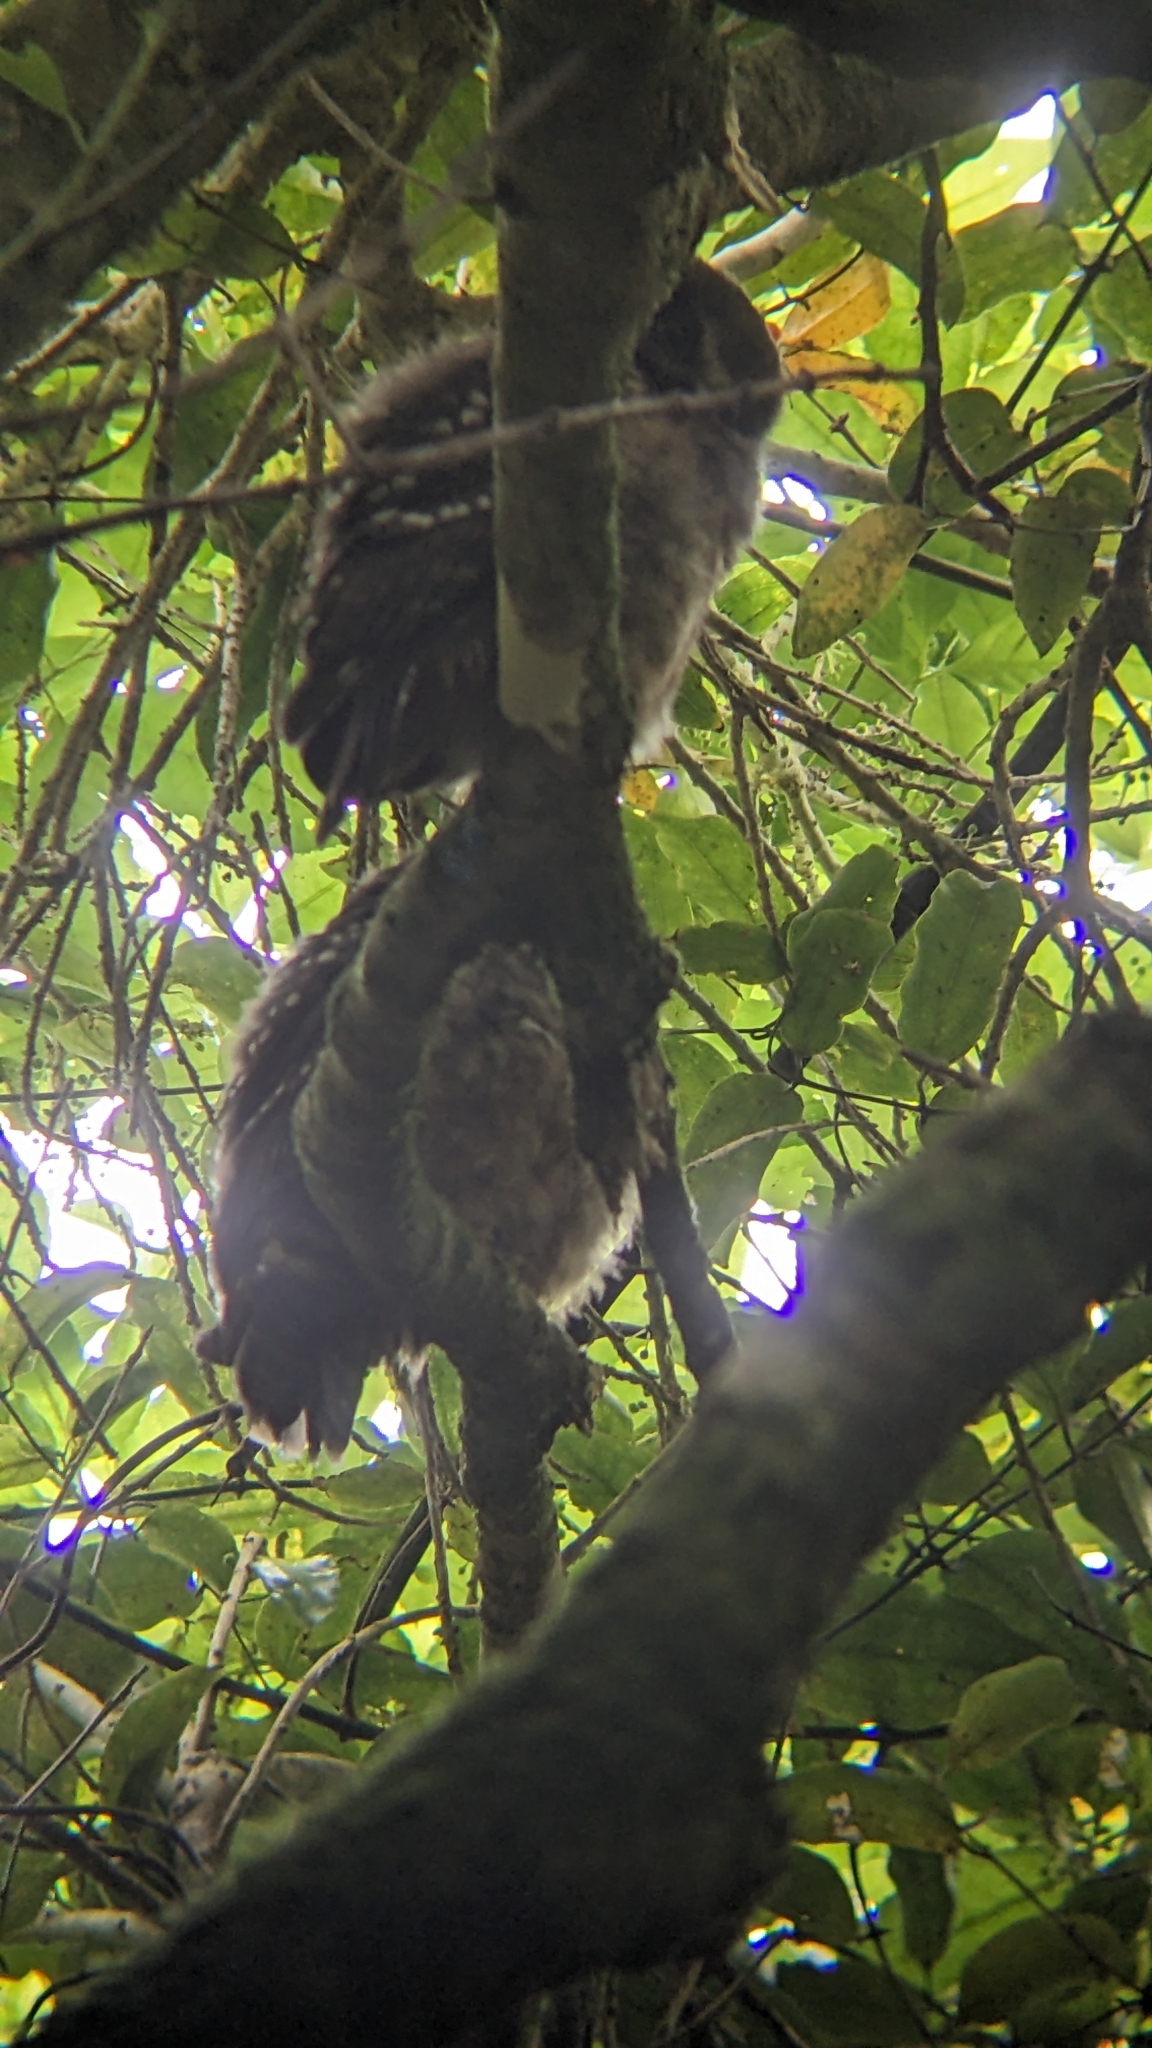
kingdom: Animalia
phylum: Chordata
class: Aves
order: Strigiformes
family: Strigidae
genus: Ninox
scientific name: Ninox novaeseelandiae
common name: Morepork
